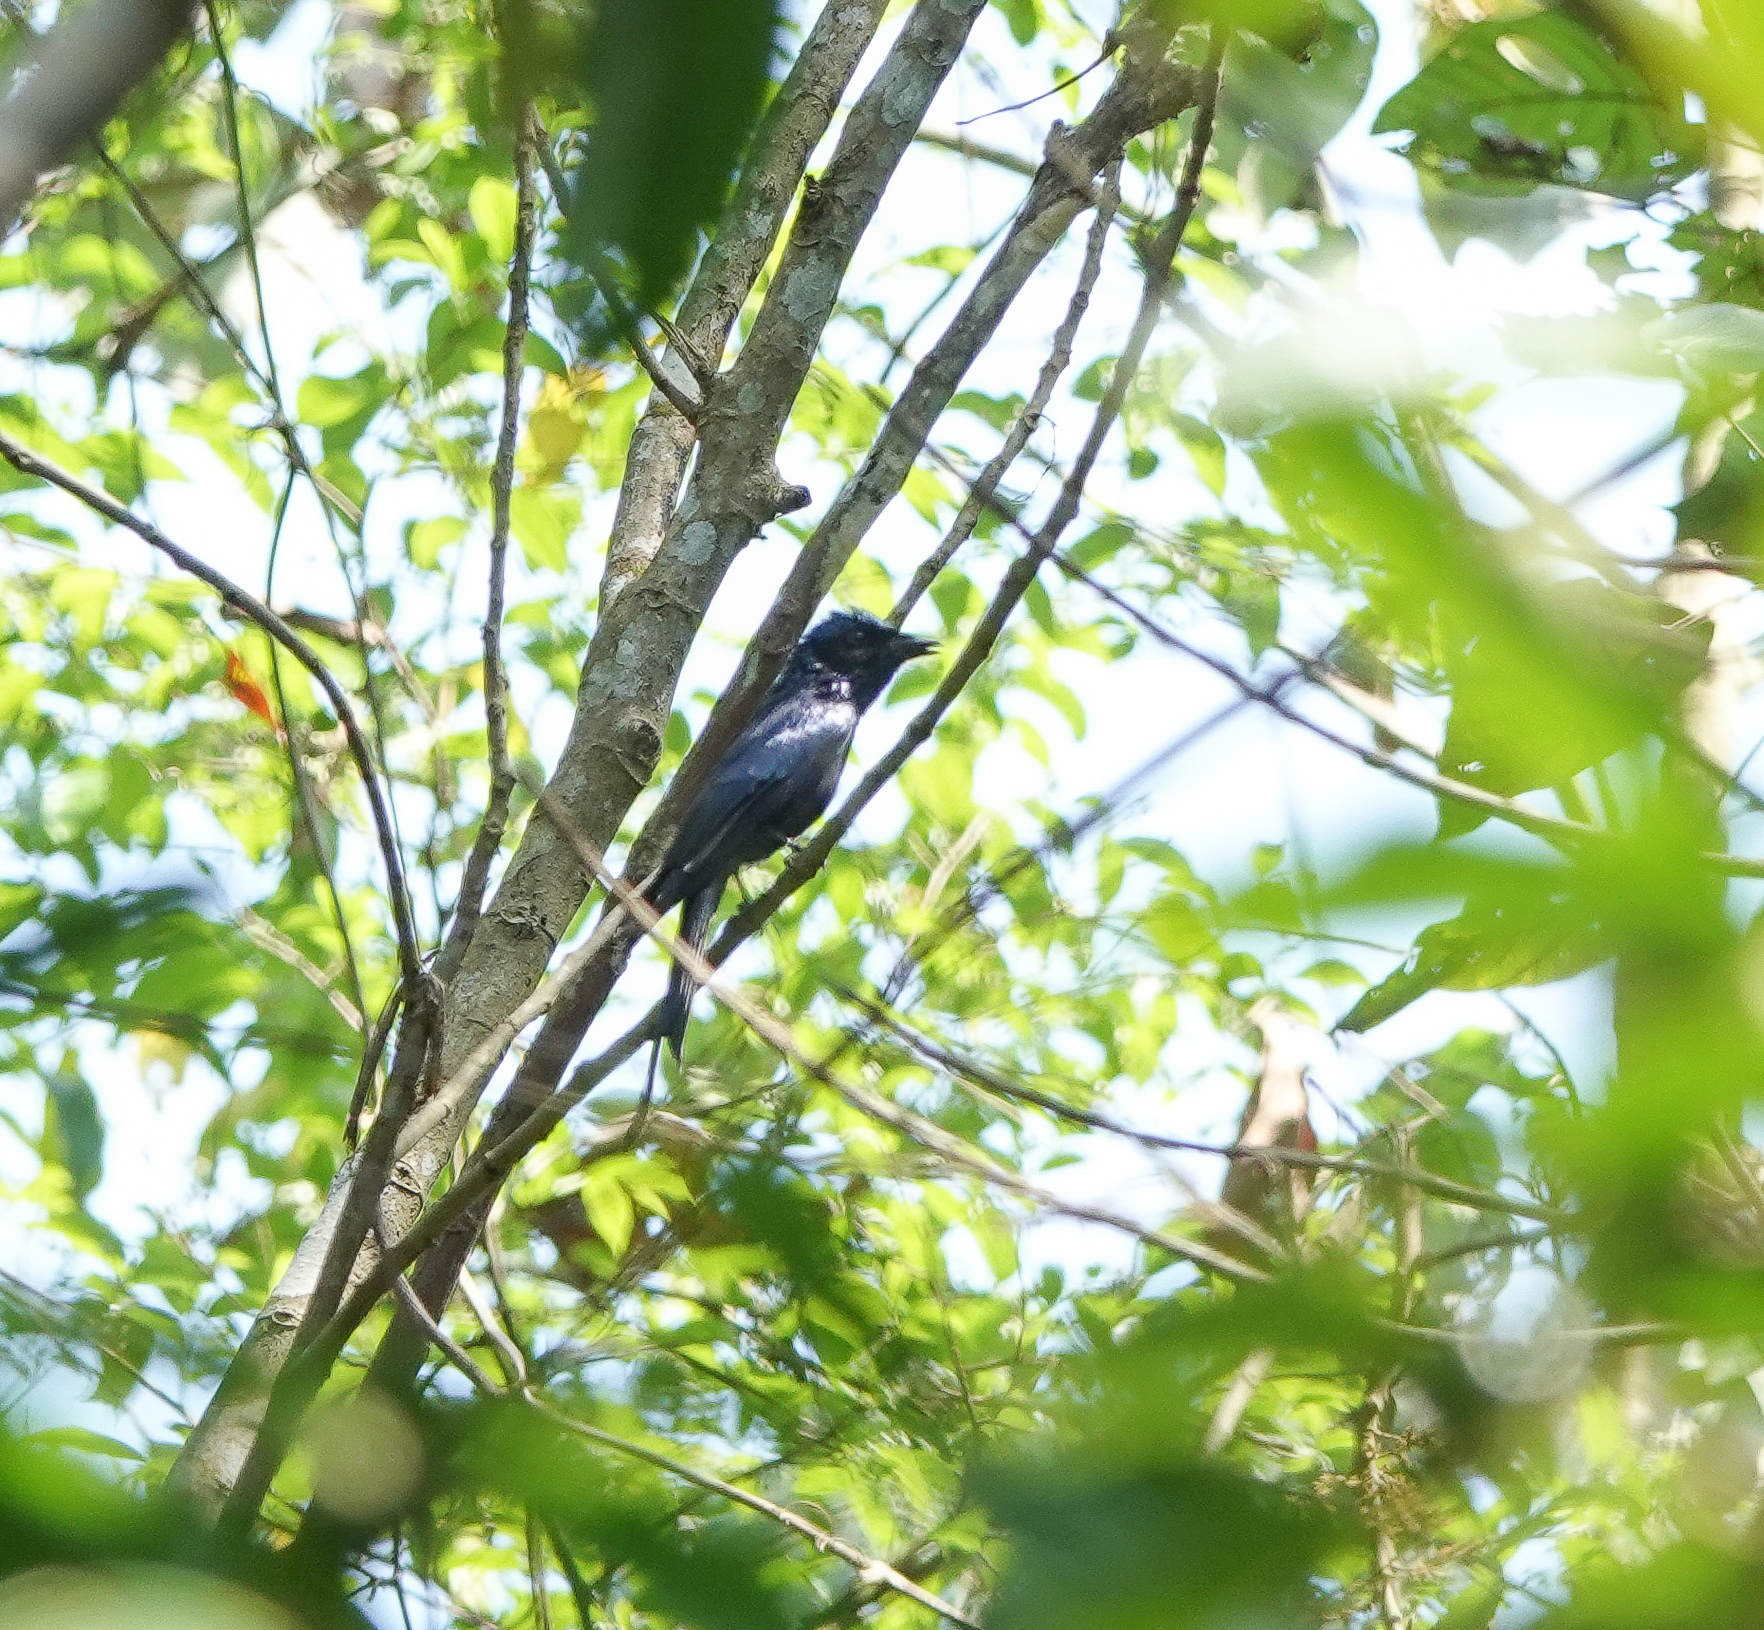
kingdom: Animalia
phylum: Chordata
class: Aves
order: Passeriformes
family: Dicruridae
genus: Dicrurus
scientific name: Dicrurus remifer
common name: Lesser racket-tailed drongo
